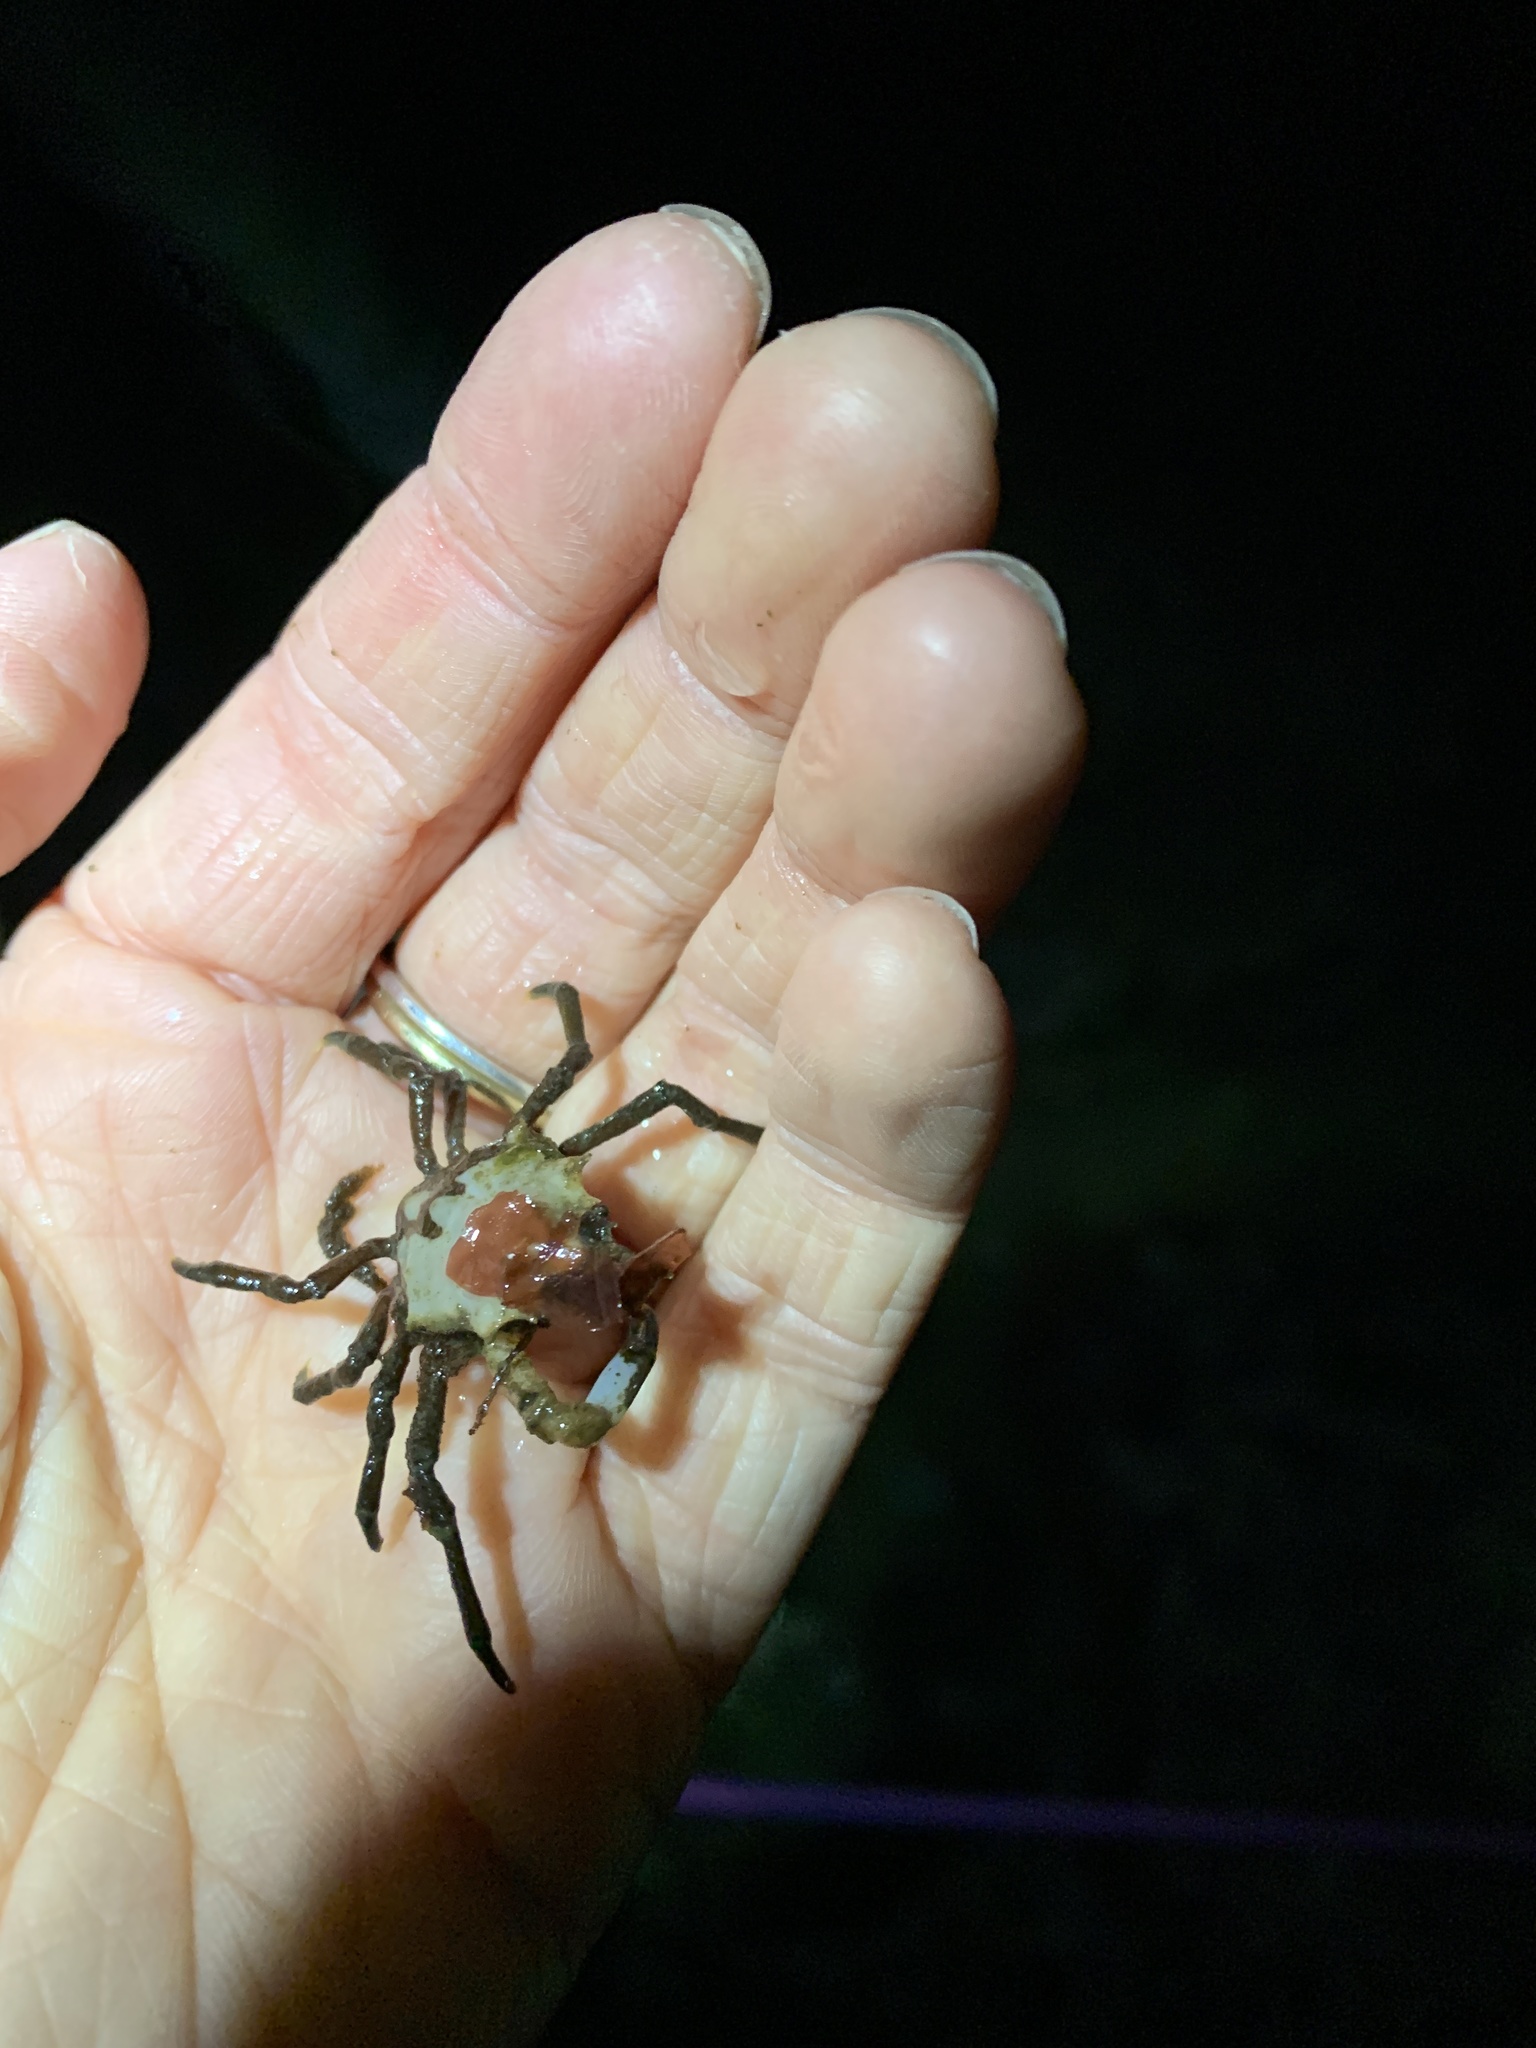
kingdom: Animalia
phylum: Arthropoda
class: Malacostraca
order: Decapoda
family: Oregoniidae
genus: Oregonia
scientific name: Oregonia gracilis
